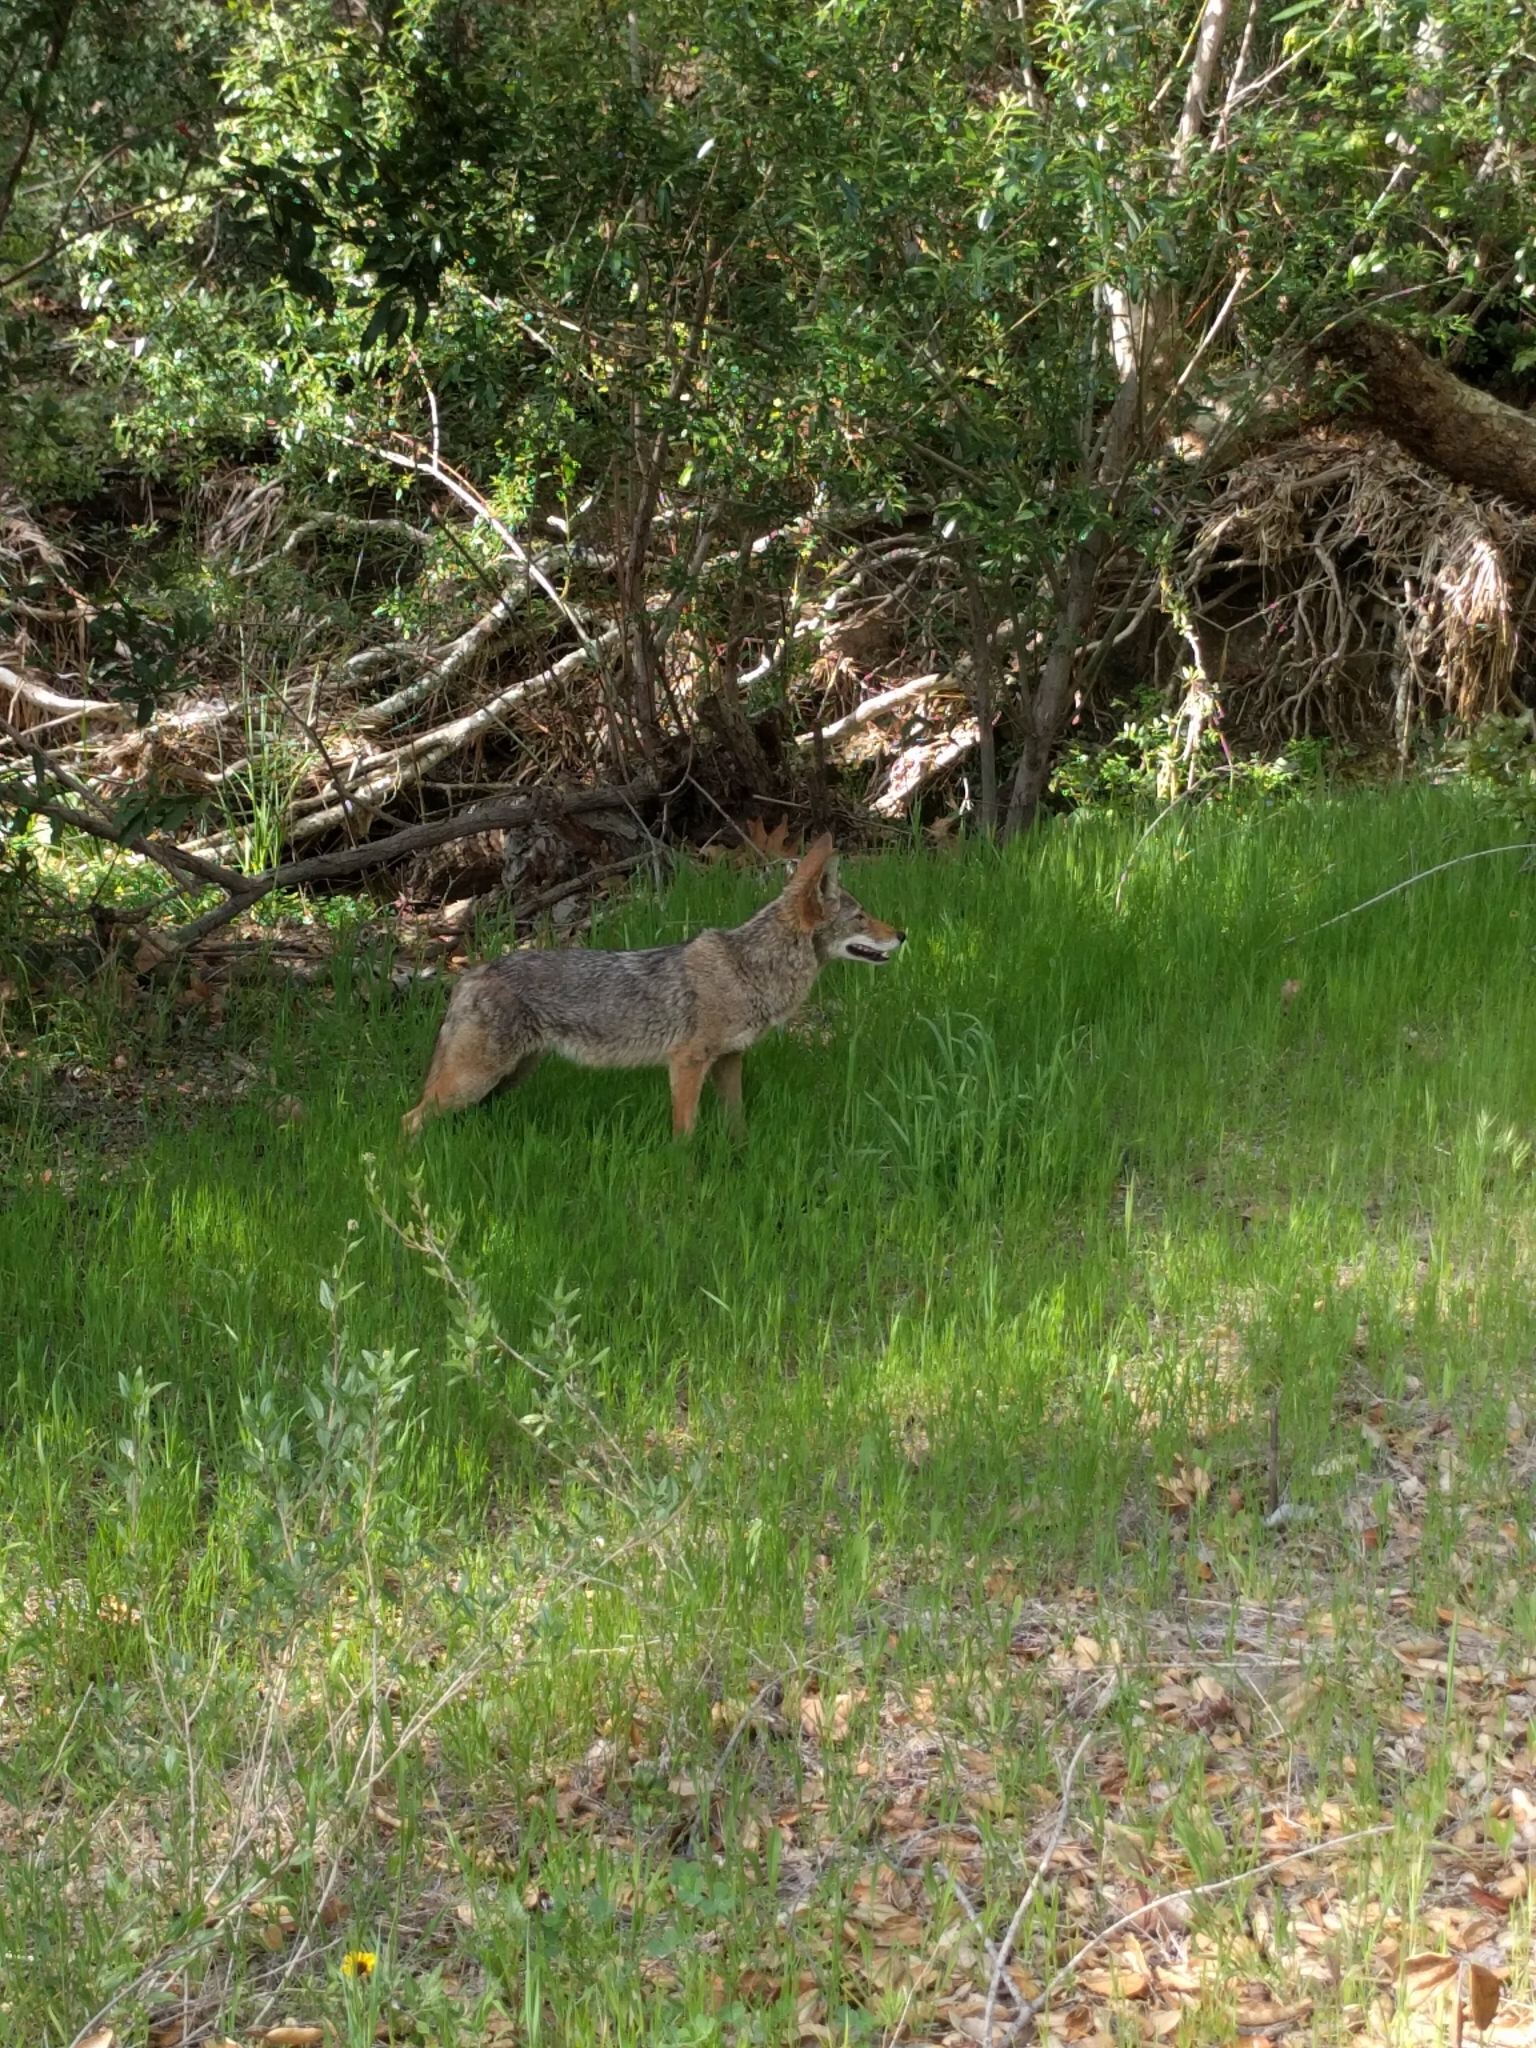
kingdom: Animalia
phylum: Chordata
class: Mammalia
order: Carnivora
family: Canidae
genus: Canis
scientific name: Canis latrans
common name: Coyote
